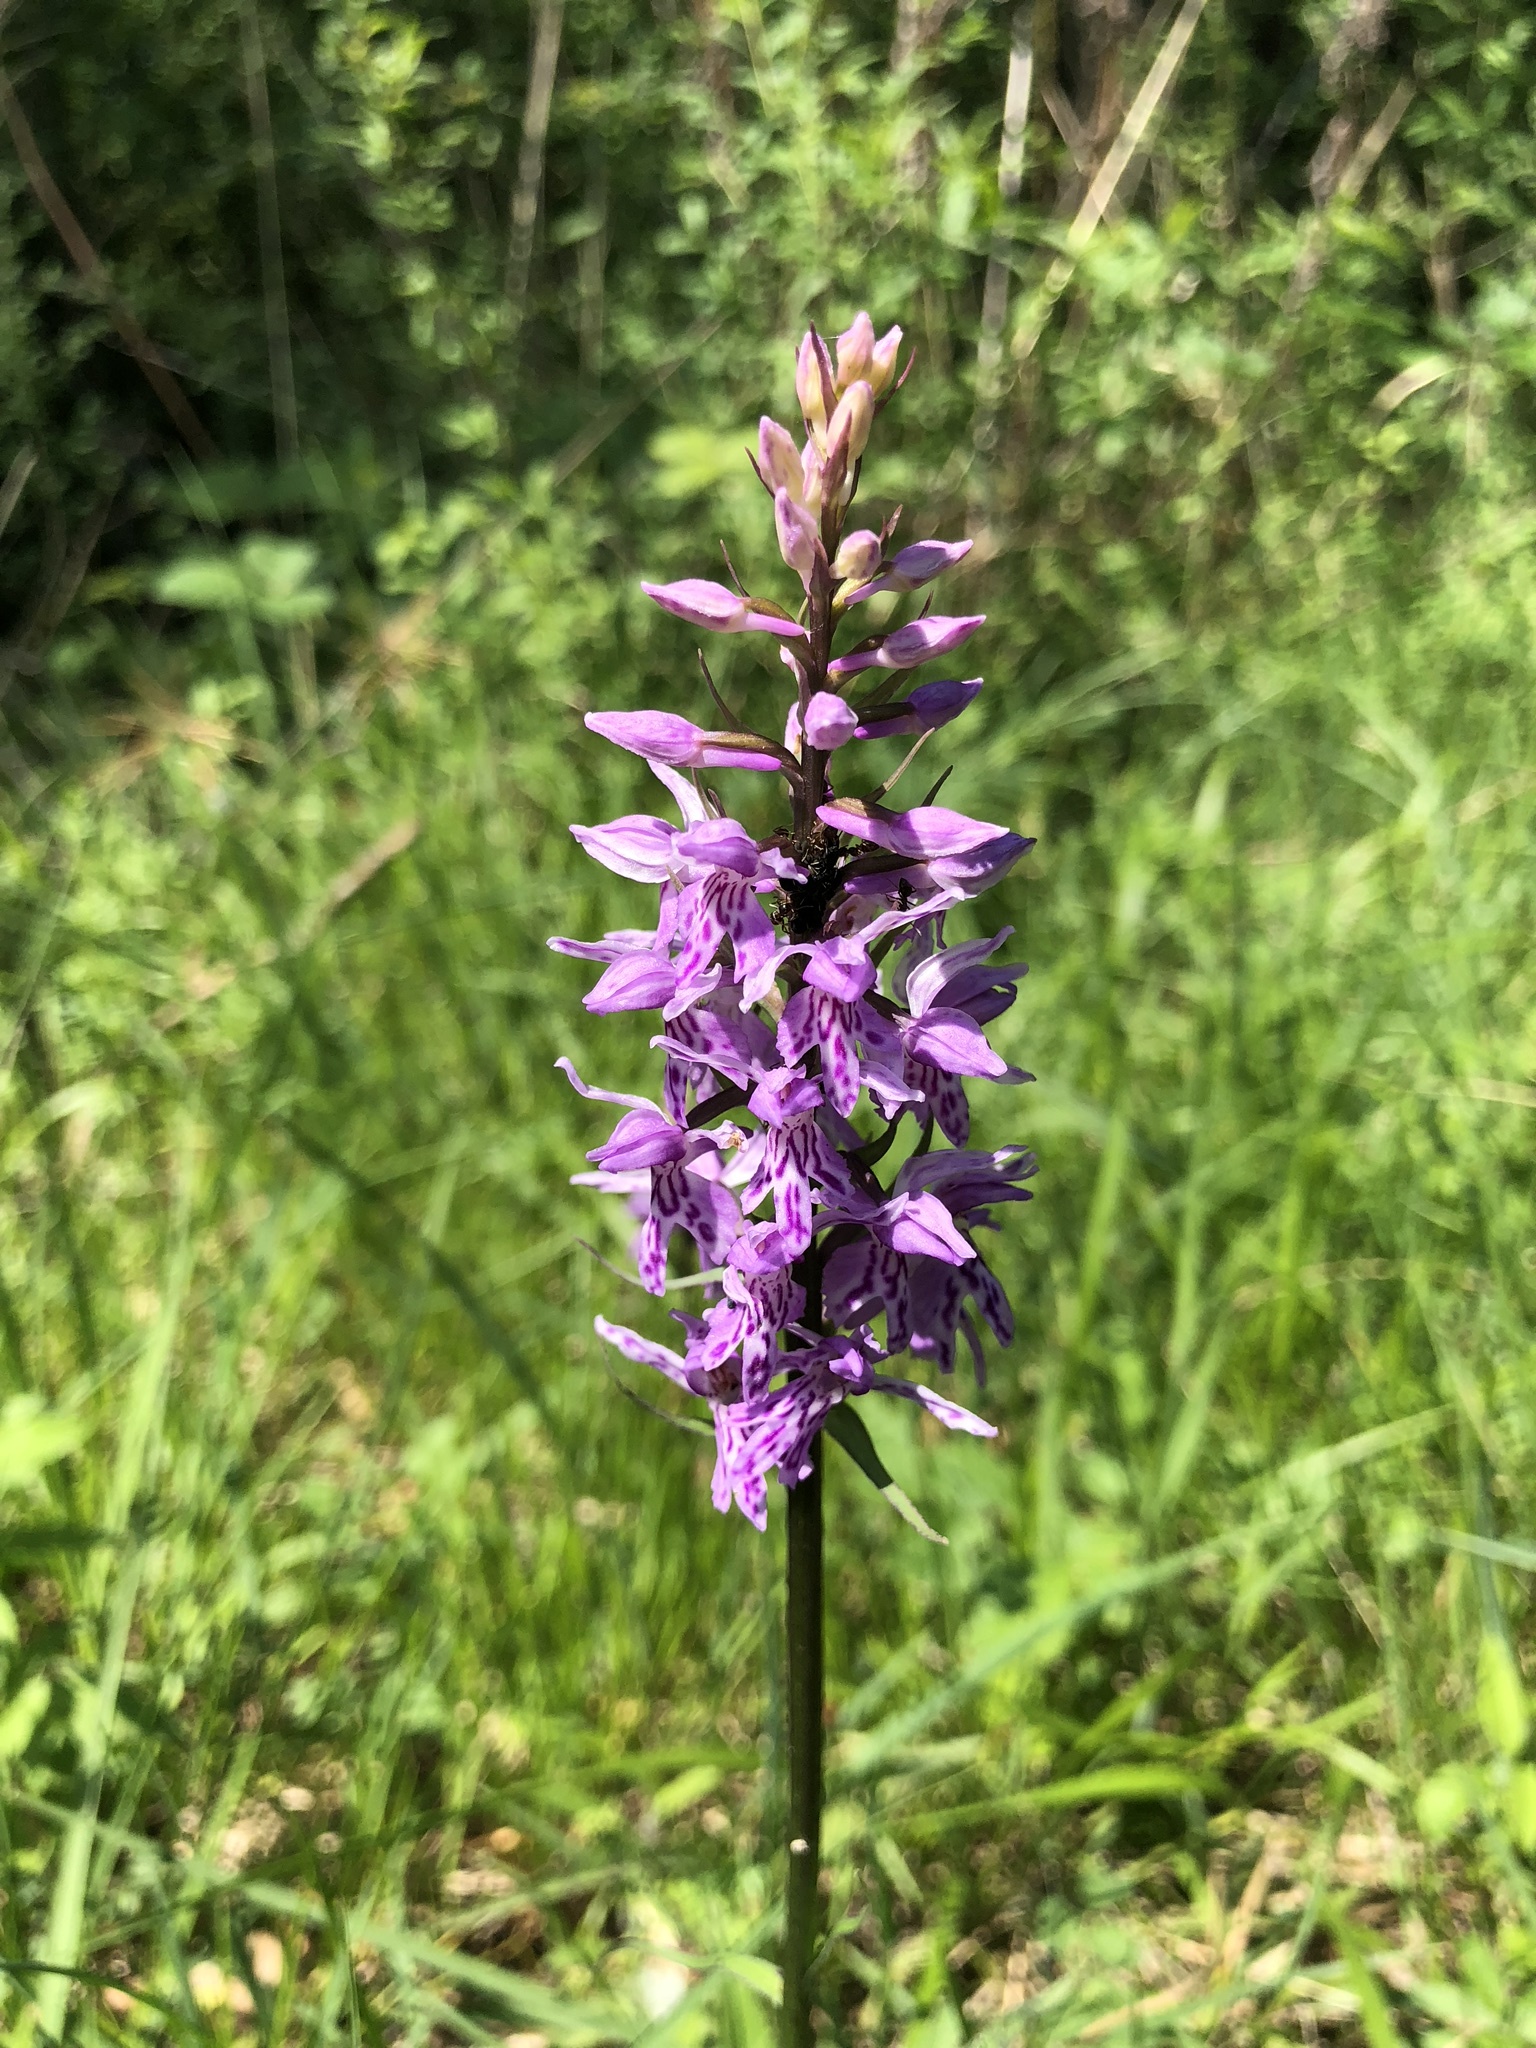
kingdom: Plantae
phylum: Tracheophyta
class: Liliopsida
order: Asparagales
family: Orchidaceae
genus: Dactylorhiza
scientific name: Dactylorhiza maculata
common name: Heath spotted-orchid
